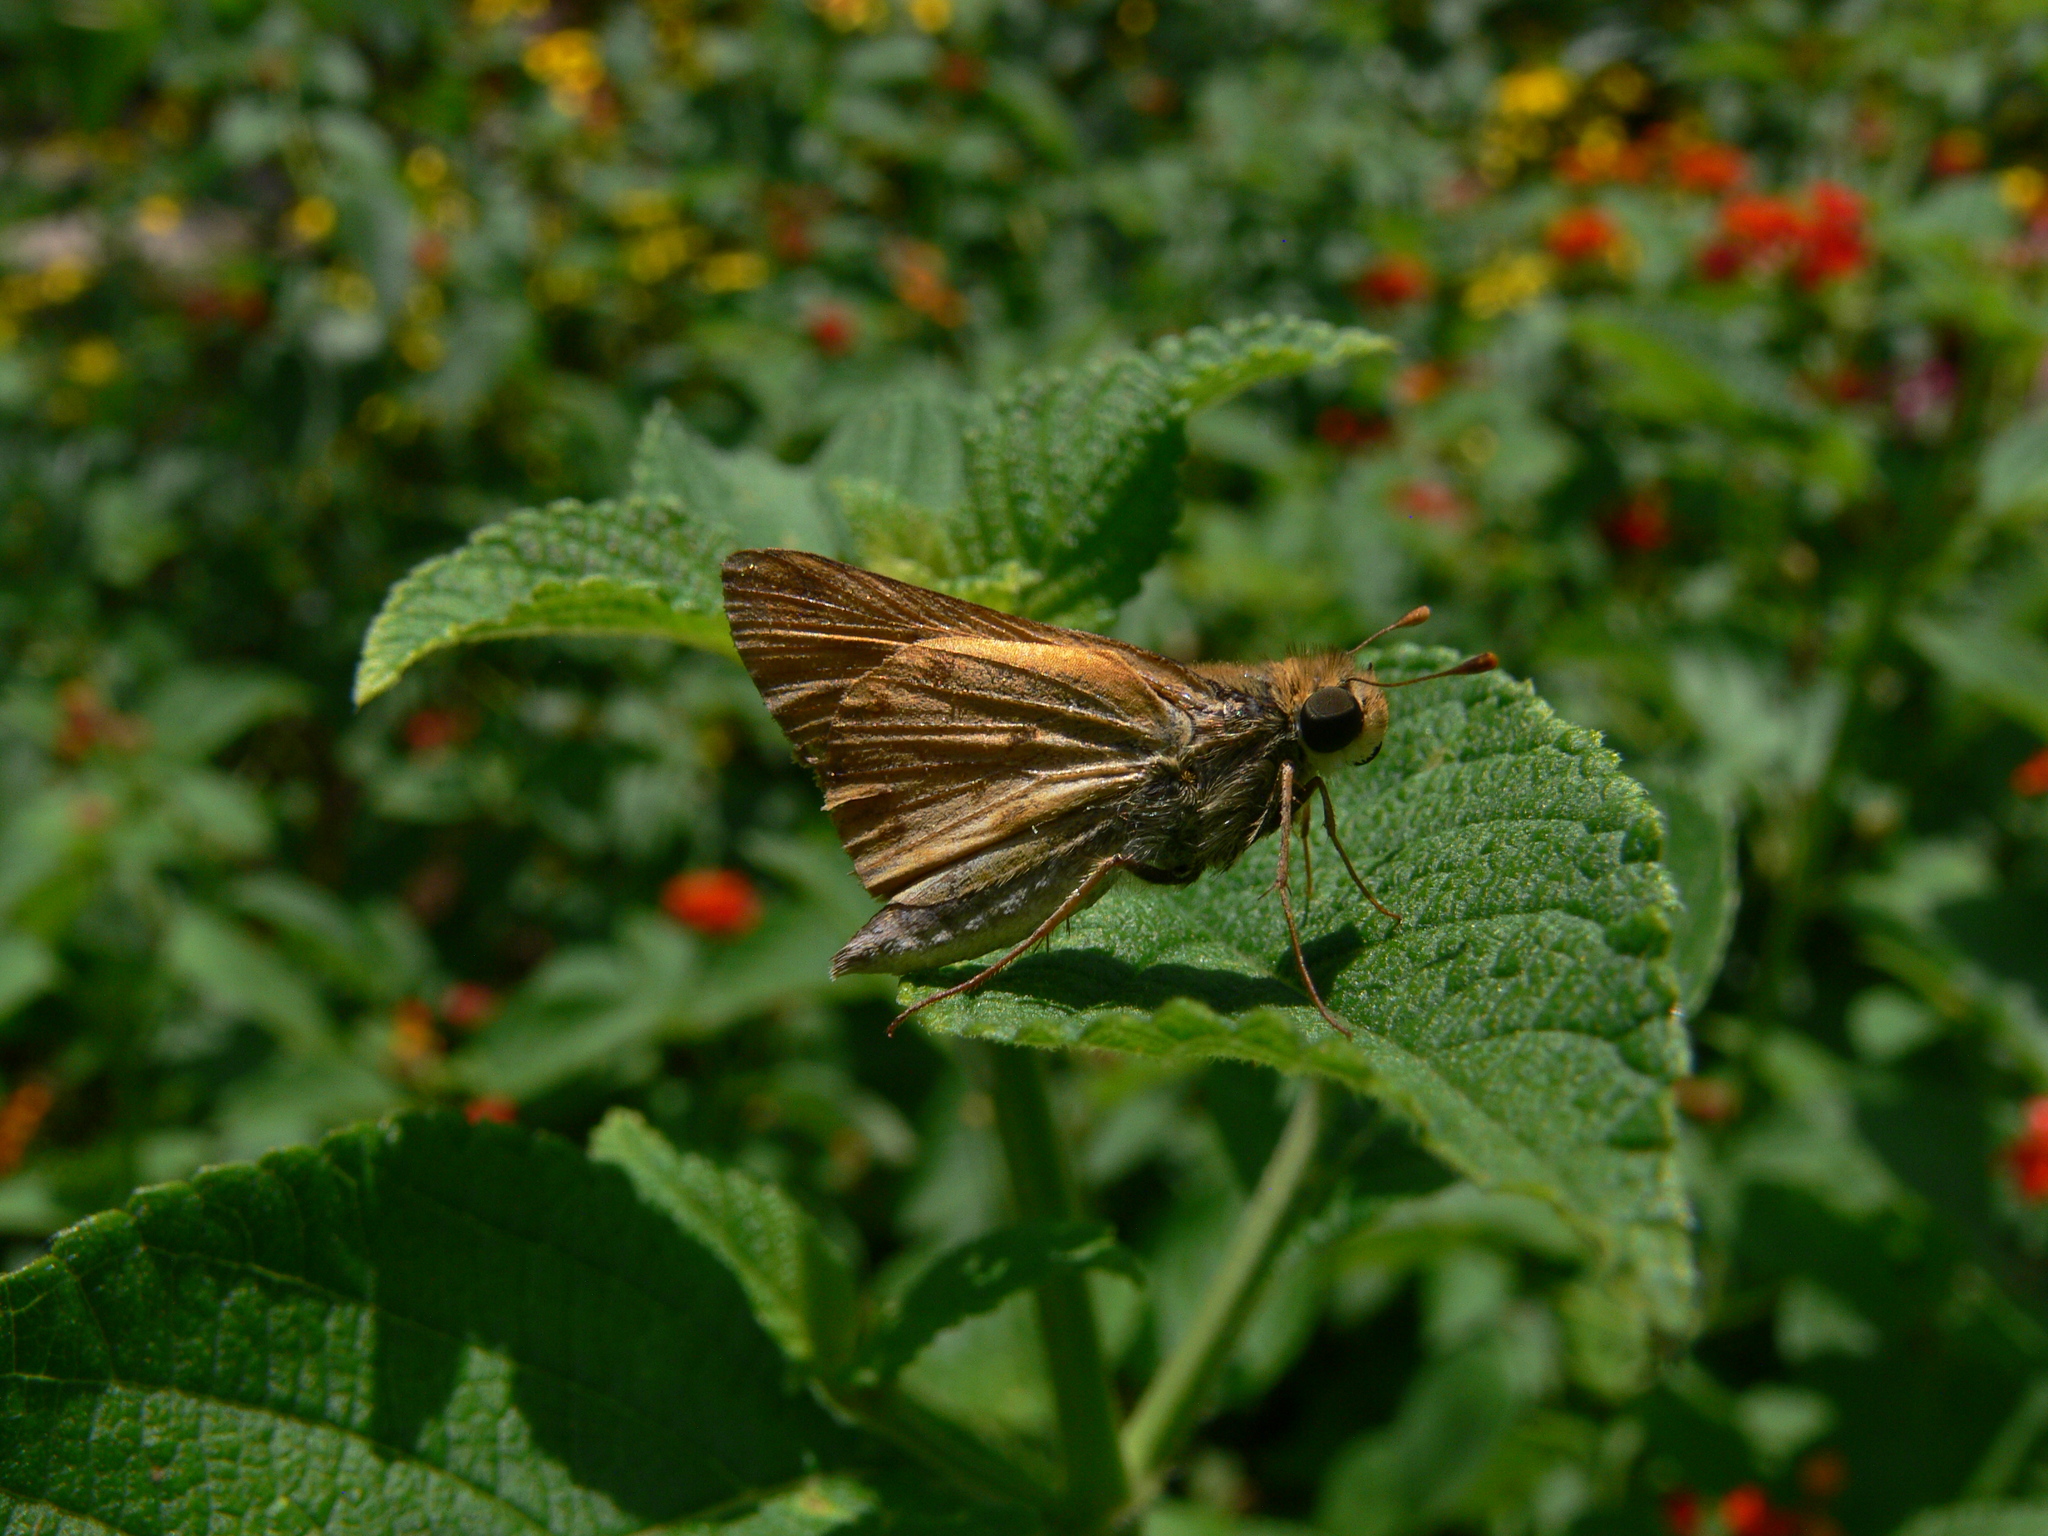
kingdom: Animalia
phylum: Arthropoda
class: Insecta
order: Lepidoptera
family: Hesperiidae
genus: Hylephila
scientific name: Hylephila phyleus
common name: Fiery skipper
